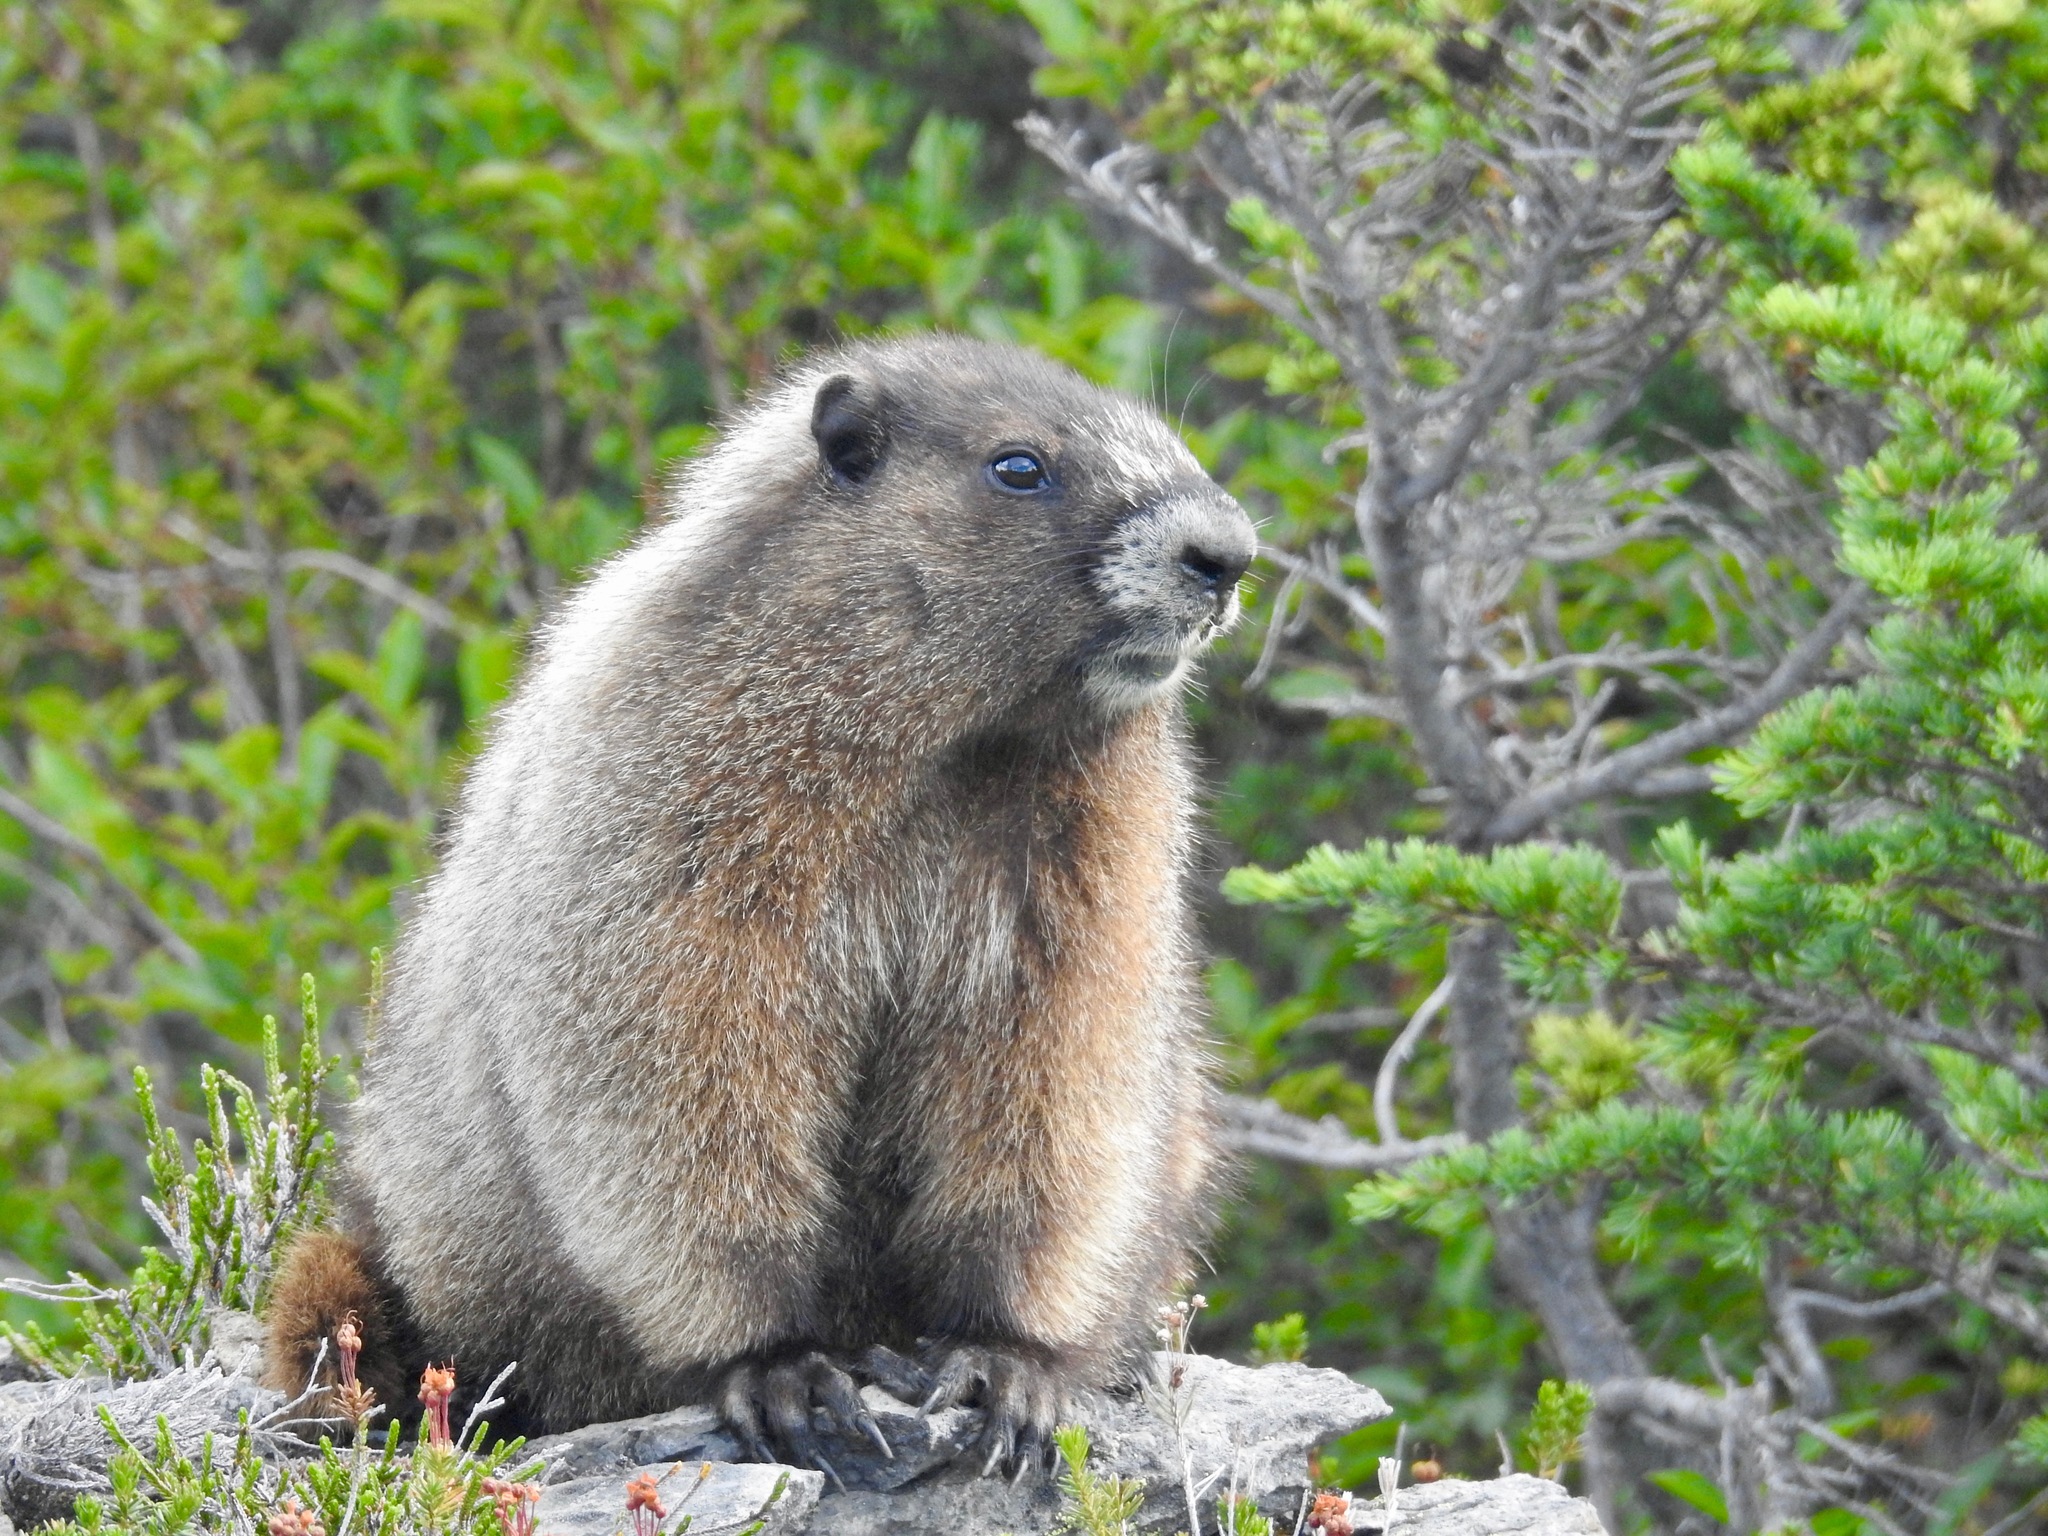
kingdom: Animalia
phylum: Chordata
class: Mammalia
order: Rodentia
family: Sciuridae
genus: Marmota
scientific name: Marmota caligata
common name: Hoary marmot
